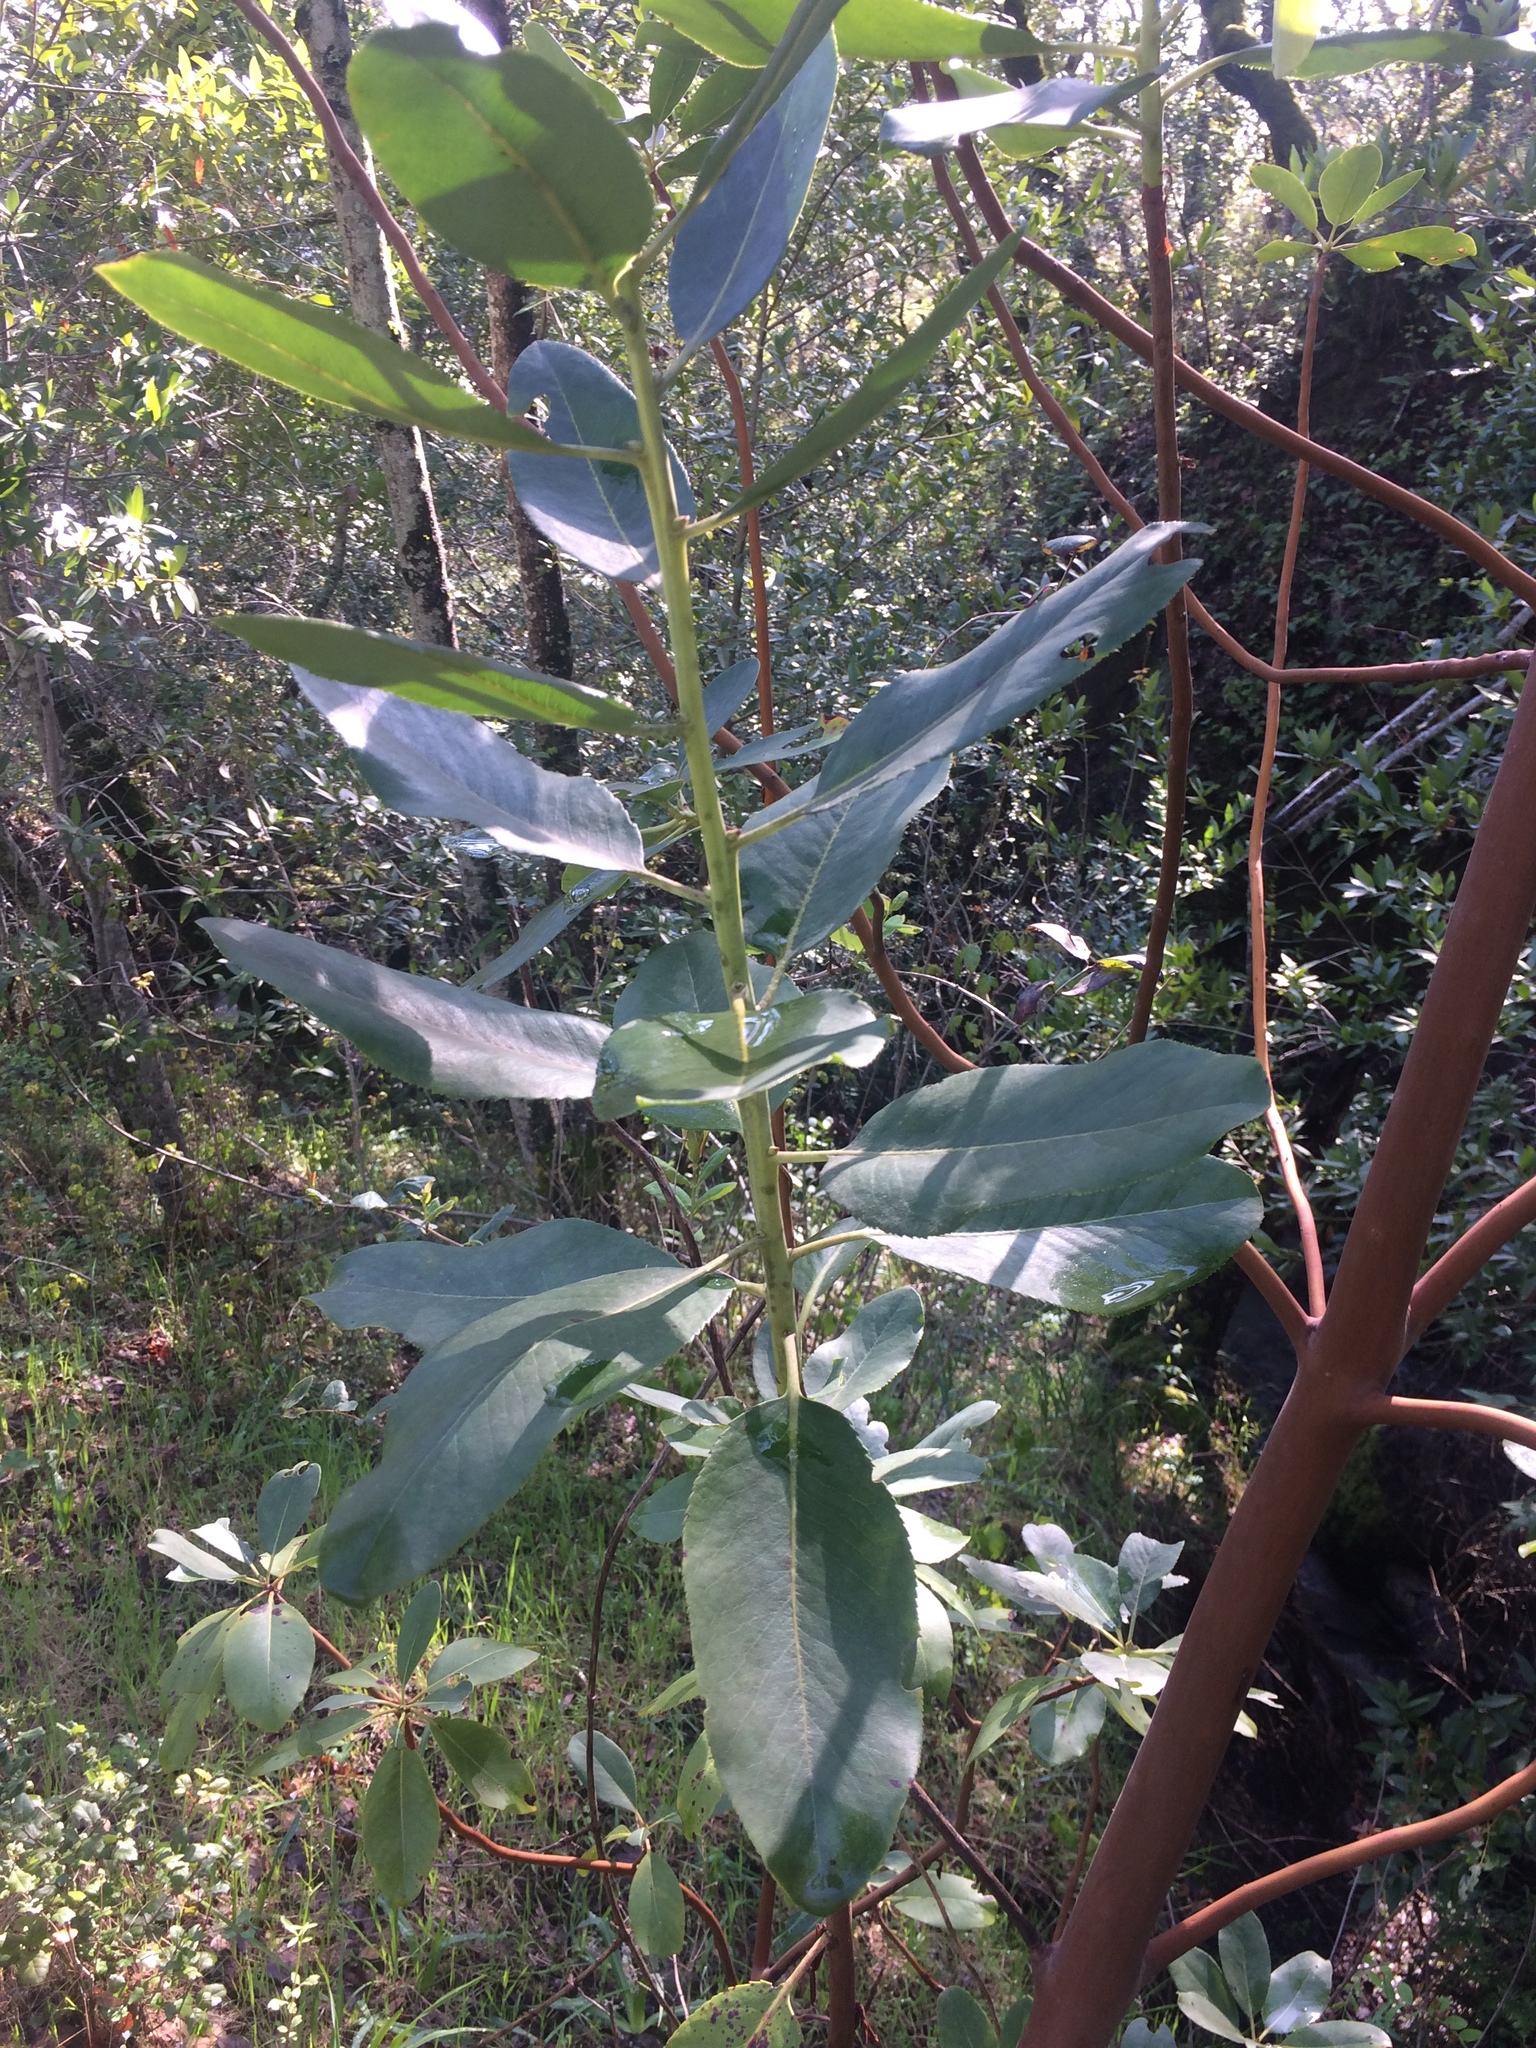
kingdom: Plantae
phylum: Tracheophyta
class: Magnoliopsida
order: Ericales
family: Ericaceae
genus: Arbutus
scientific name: Arbutus menziesii
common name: Pacific madrone
